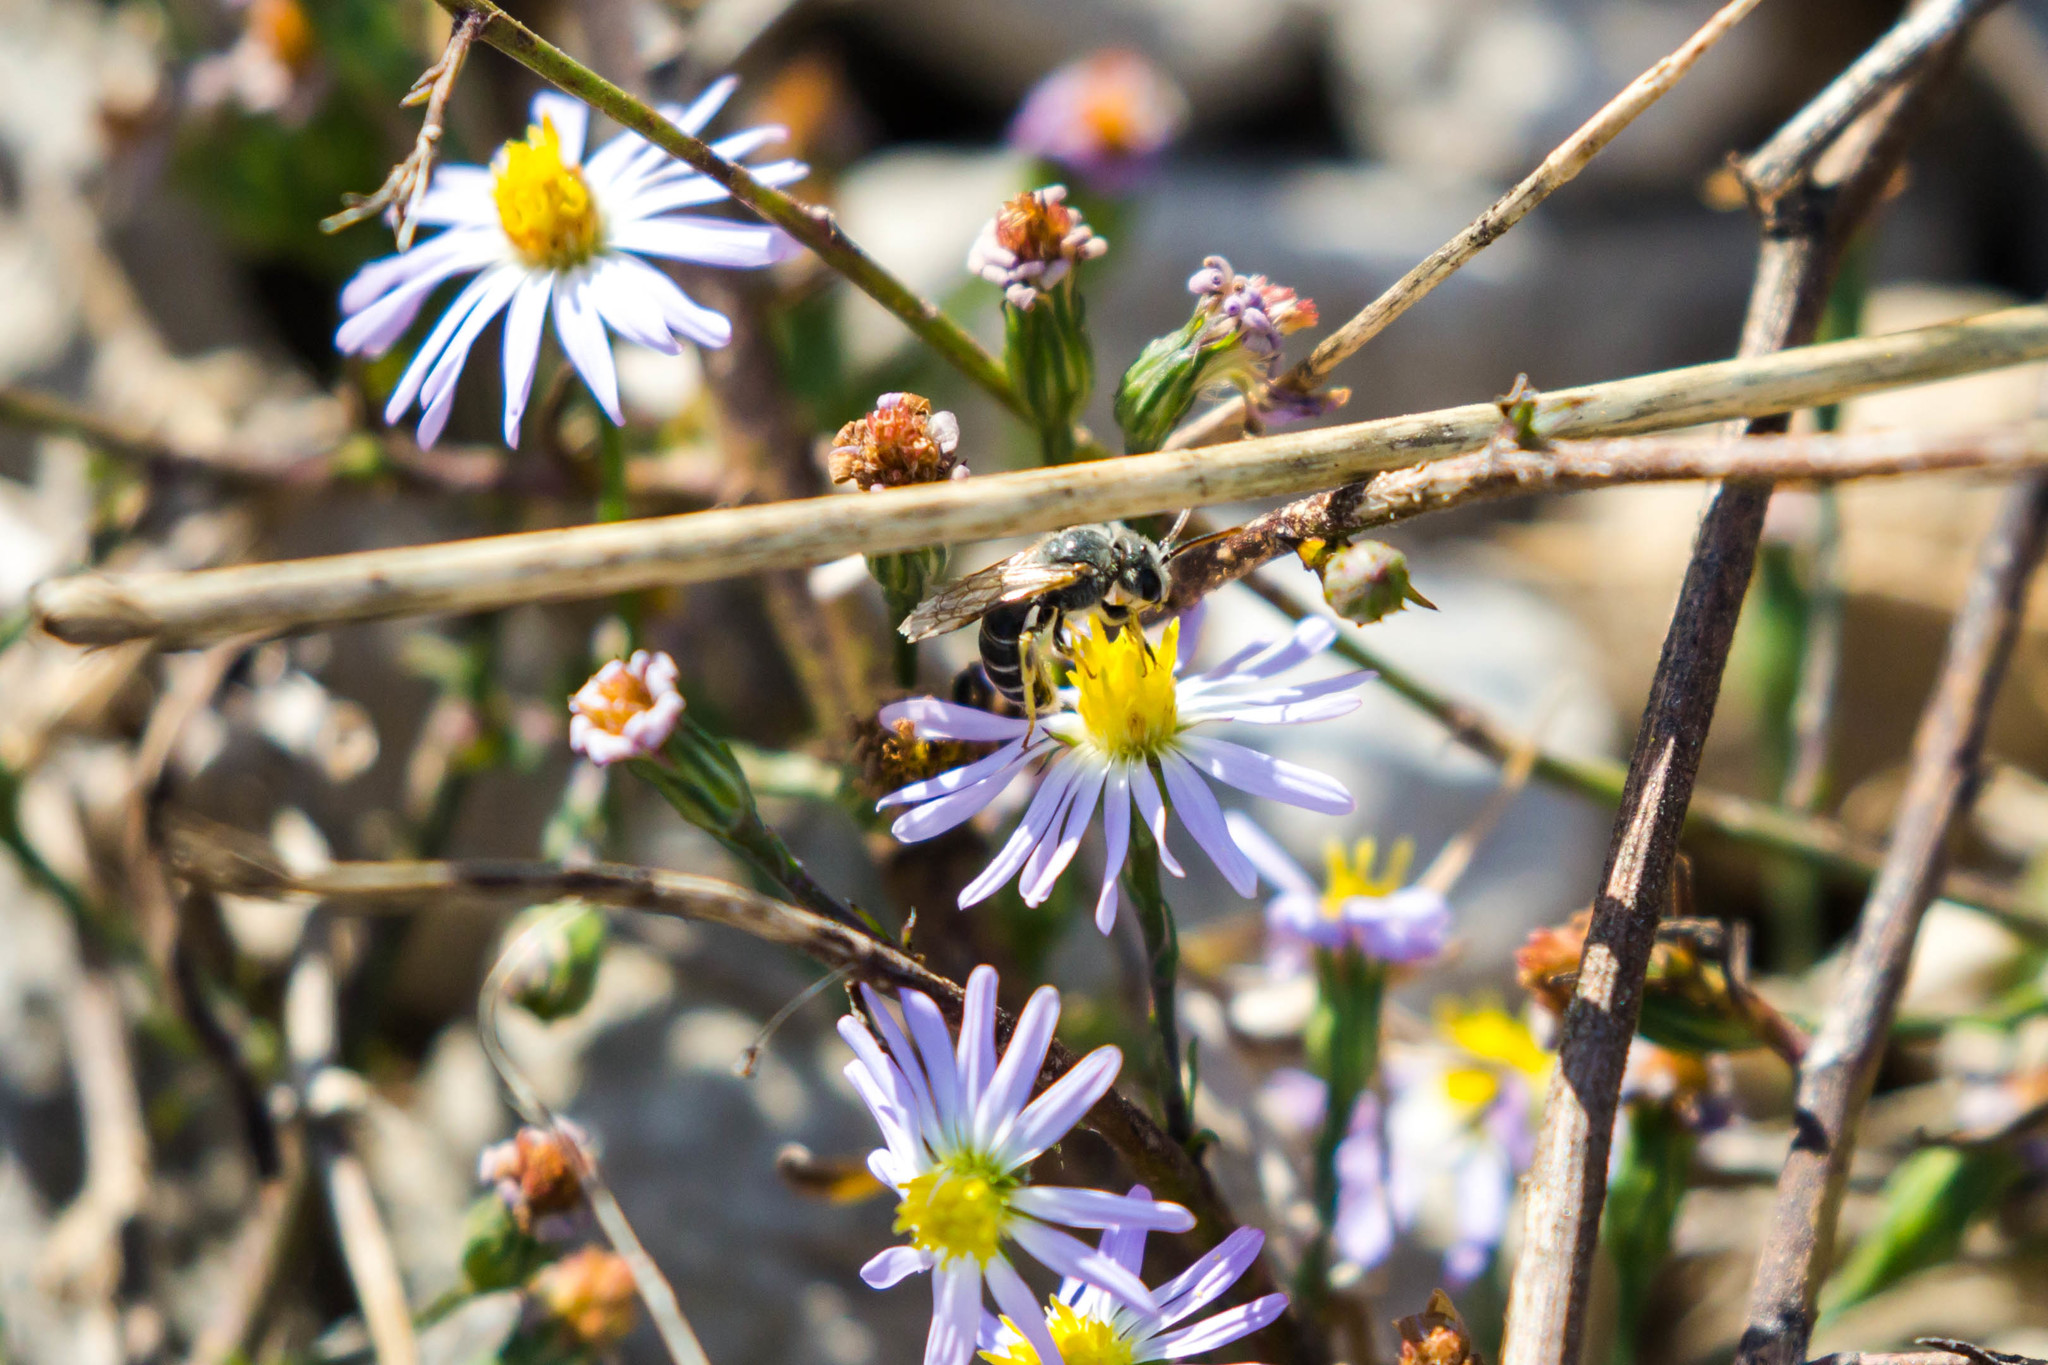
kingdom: Animalia
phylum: Arthropoda
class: Insecta
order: Hymenoptera
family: Halictidae
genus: Halictus
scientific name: Halictus ligatus
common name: Ligated furrow bee
